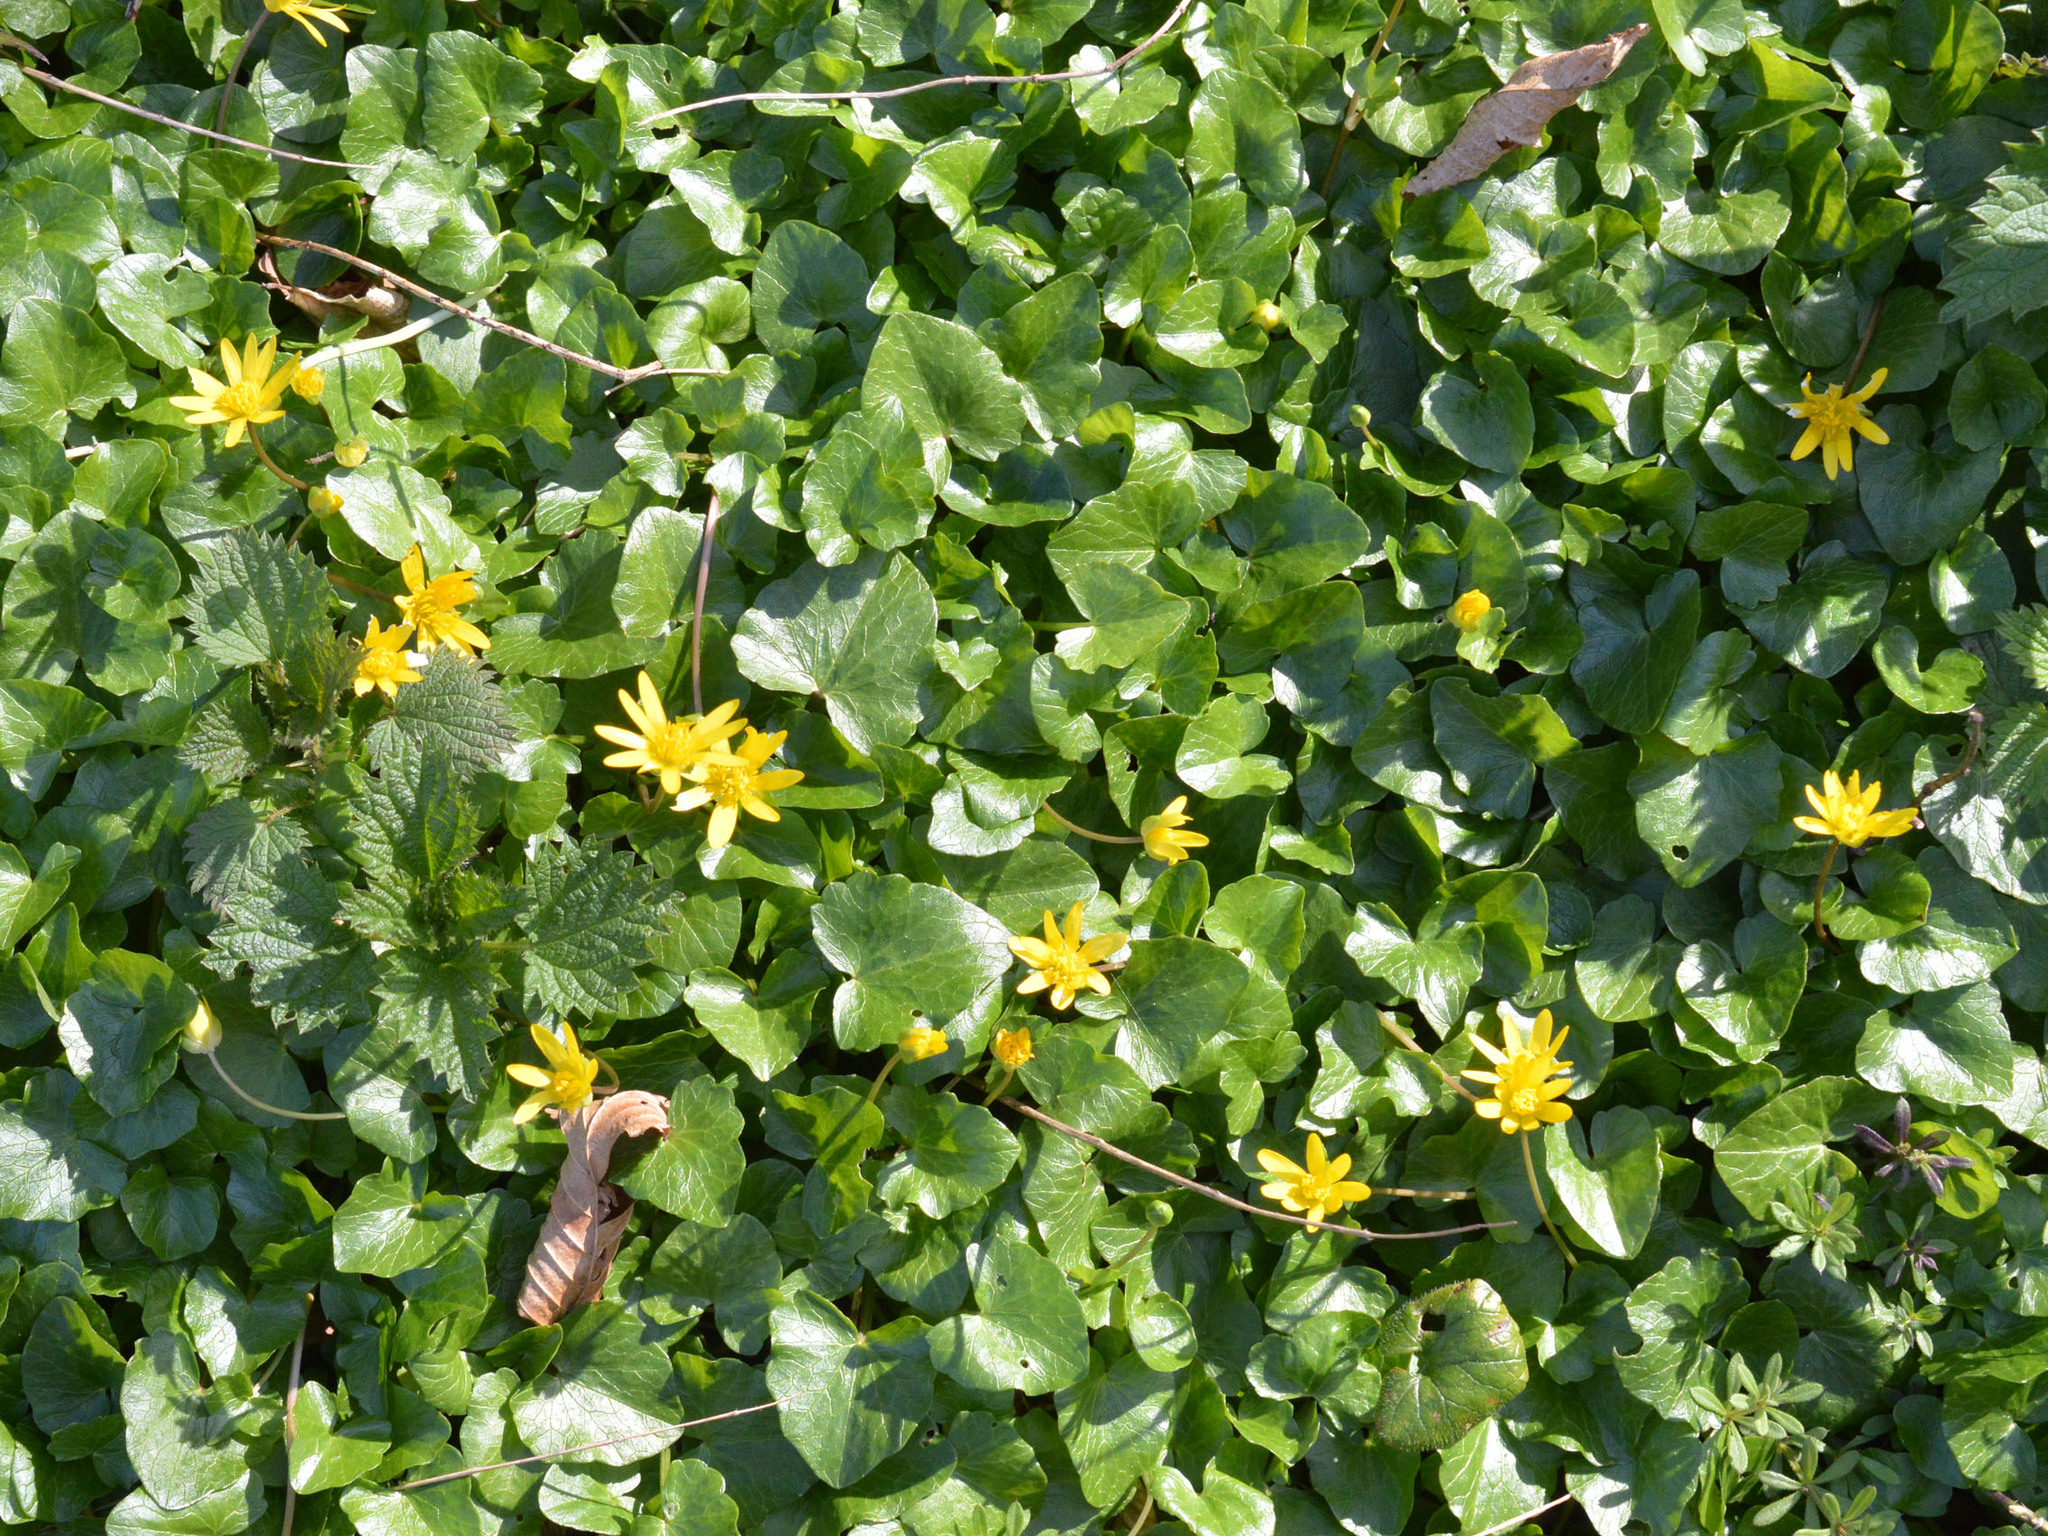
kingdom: Plantae
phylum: Tracheophyta
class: Magnoliopsida
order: Ranunculales
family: Ranunculaceae
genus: Ficaria
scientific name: Ficaria verna
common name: Lesser celandine
